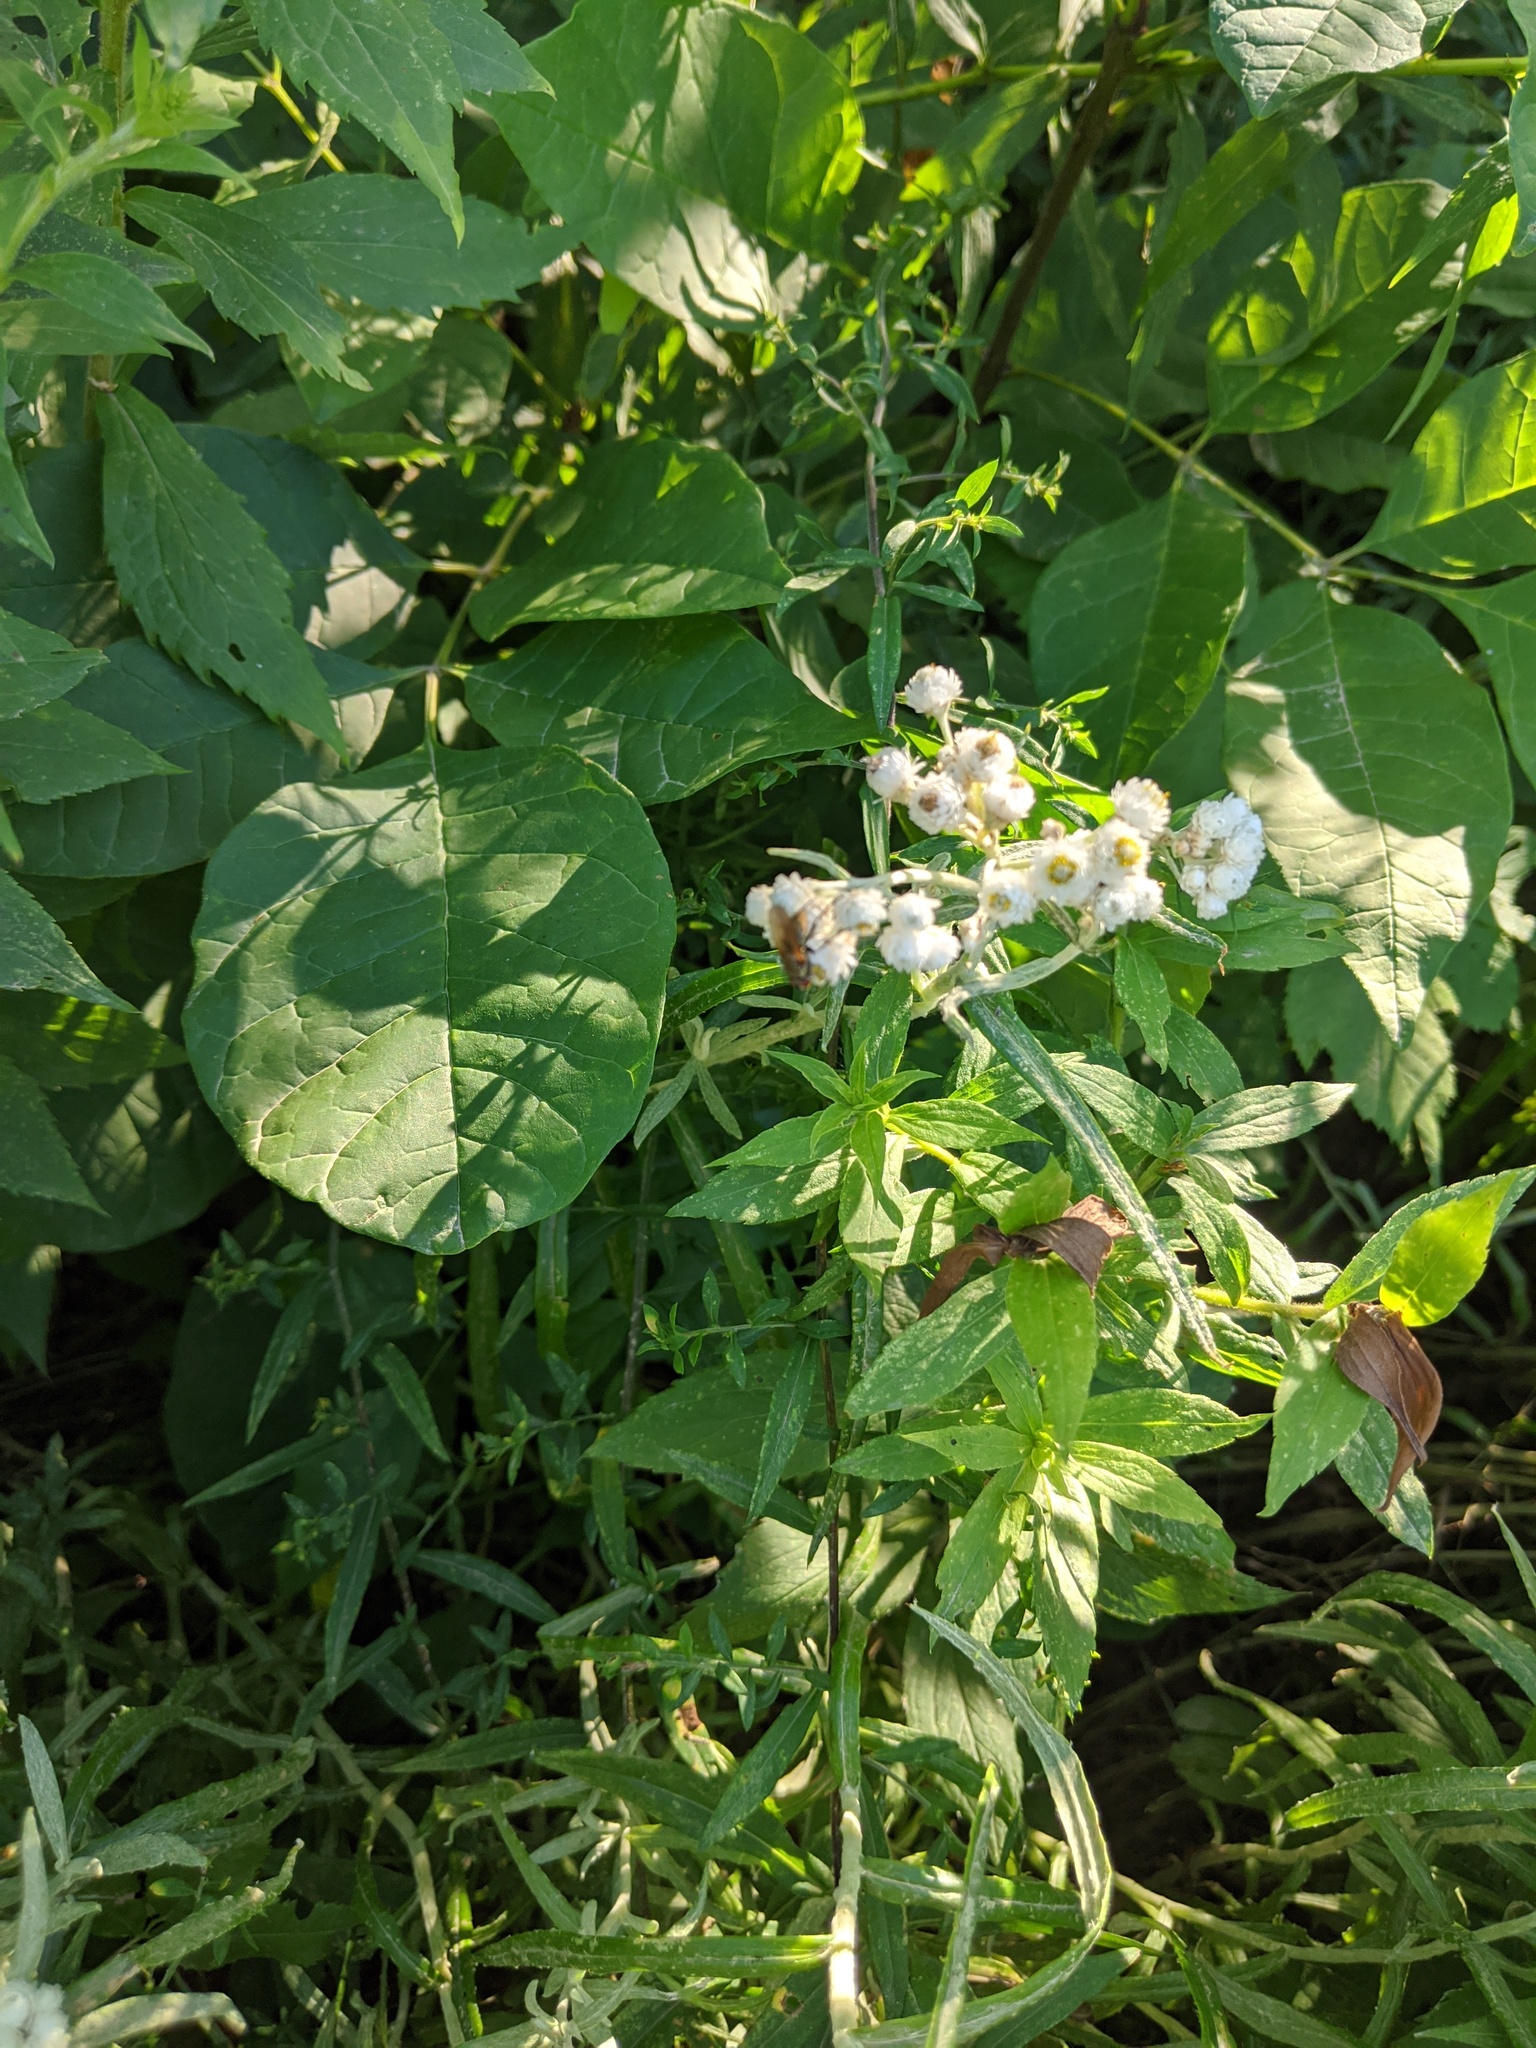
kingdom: Plantae
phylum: Tracheophyta
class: Magnoliopsida
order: Asterales
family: Asteraceae
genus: Anaphalis
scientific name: Anaphalis margaritacea
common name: Pearly everlasting
